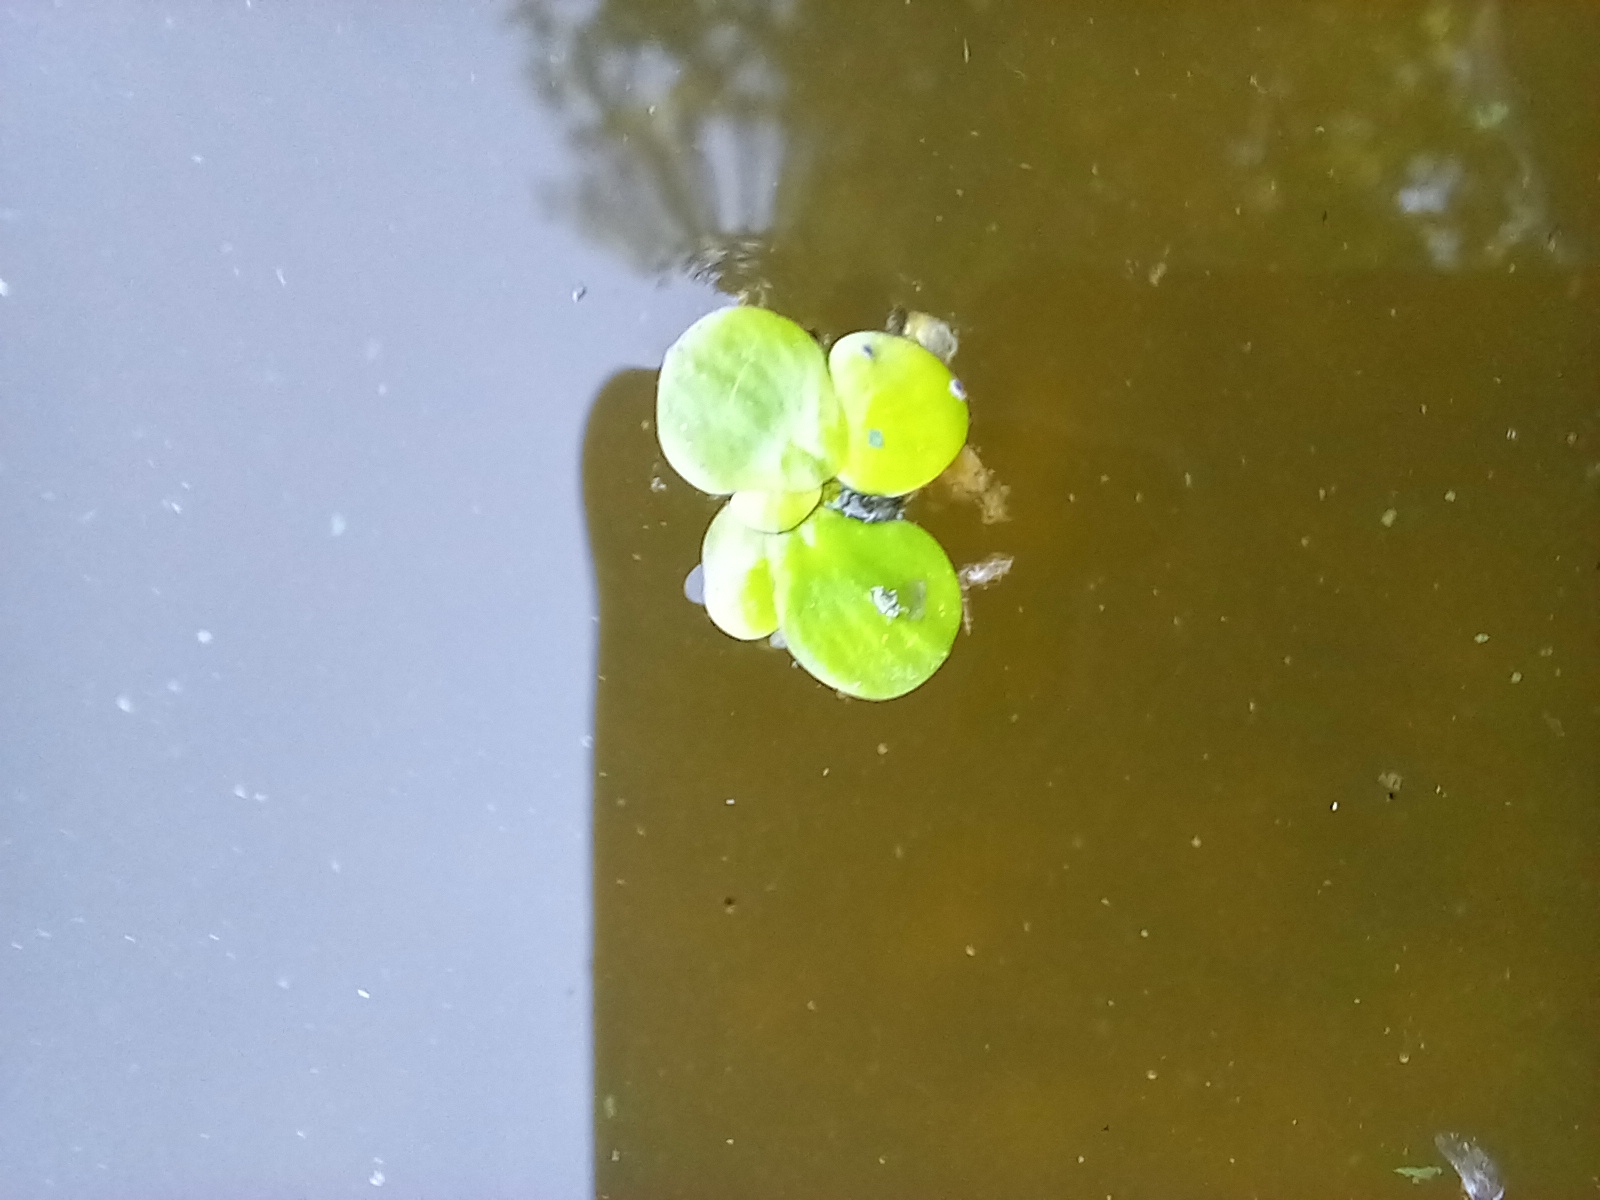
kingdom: Plantae
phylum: Tracheophyta
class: Liliopsida
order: Alismatales
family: Araceae
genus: Spirodela
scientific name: Spirodela polyrhiza
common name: Great duckweed
